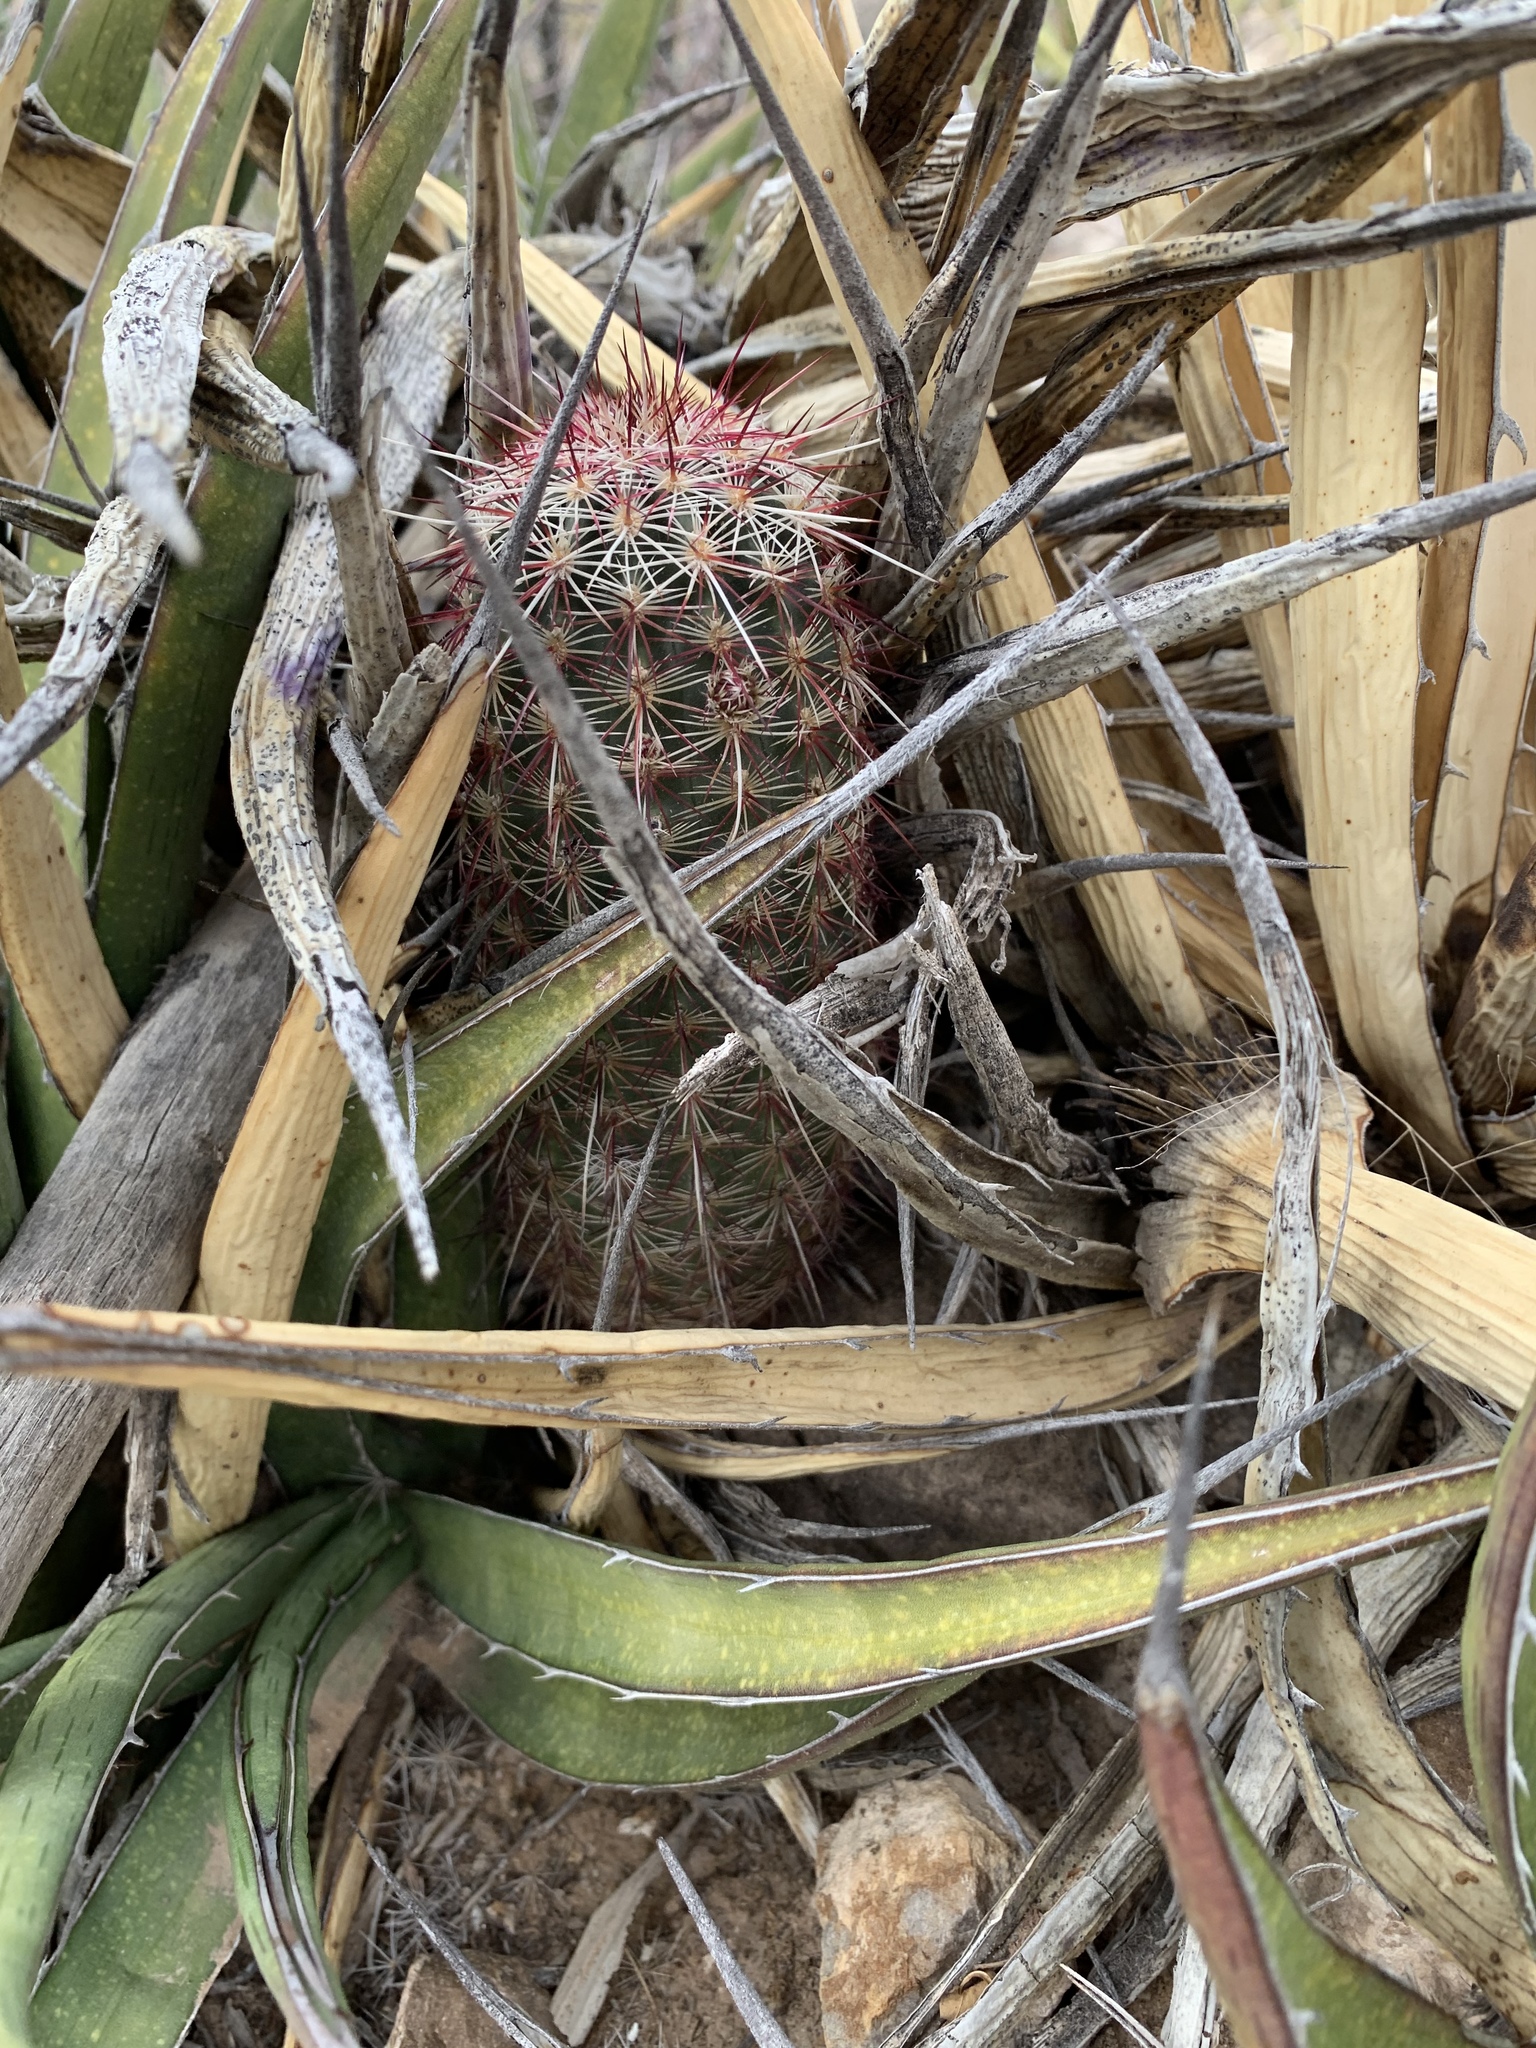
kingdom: Plantae
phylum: Tracheophyta
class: Magnoliopsida
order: Caryophyllales
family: Cactaceae
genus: Echinocereus
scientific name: Echinocereus viridiflorus
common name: Nylon hedgehog cactus
